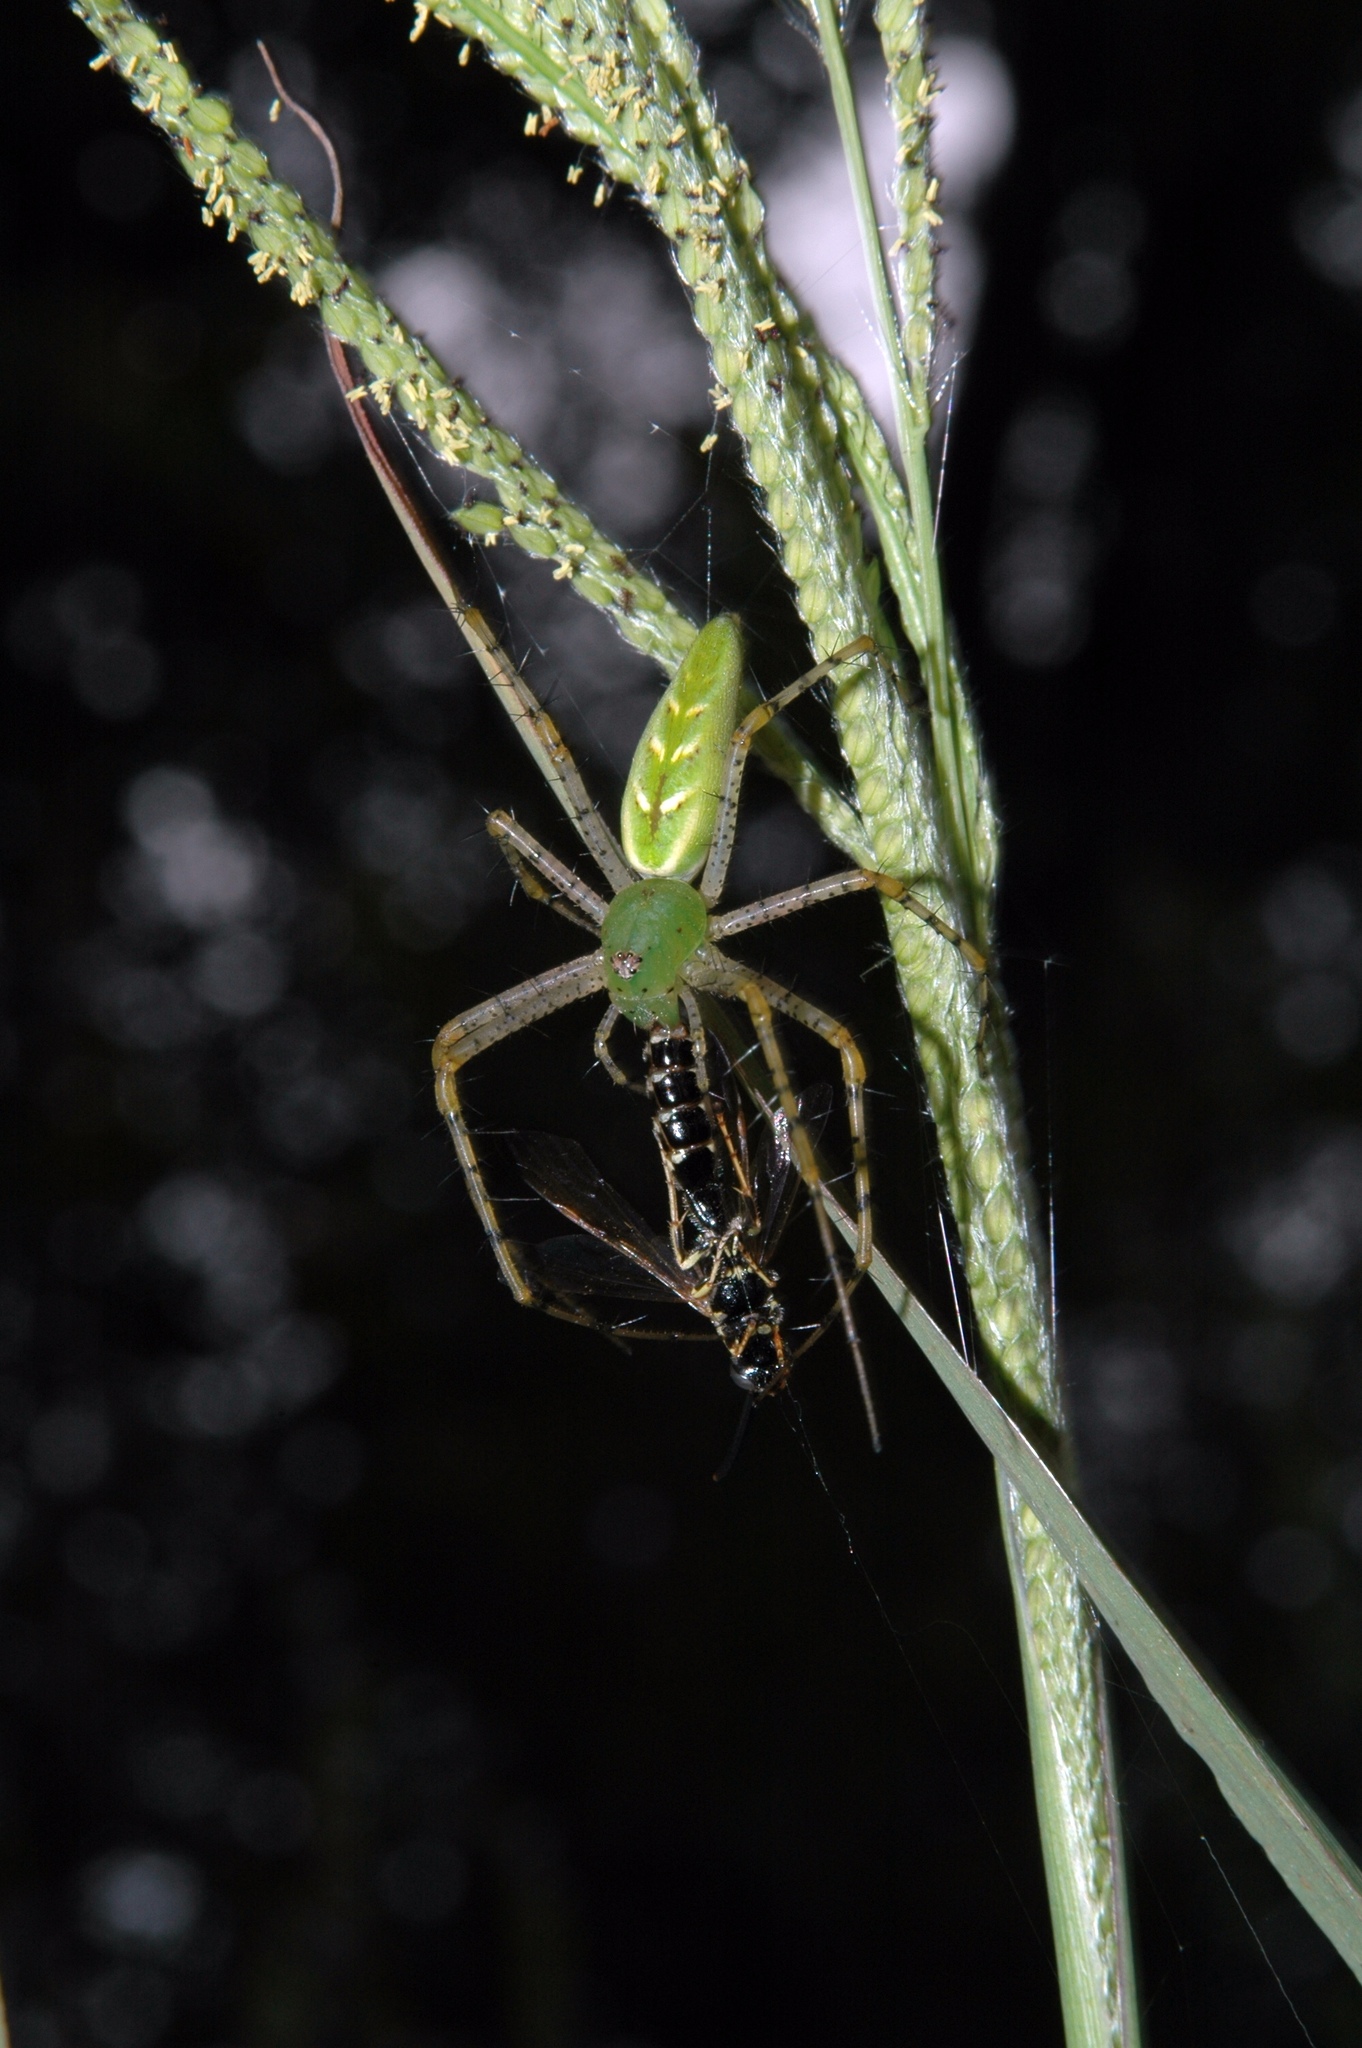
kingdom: Animalia
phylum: Arthropoda
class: Arachnida
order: Araneae
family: Oxyopidae
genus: Peucetia
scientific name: Peucetia viridans
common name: Lynx spiders
